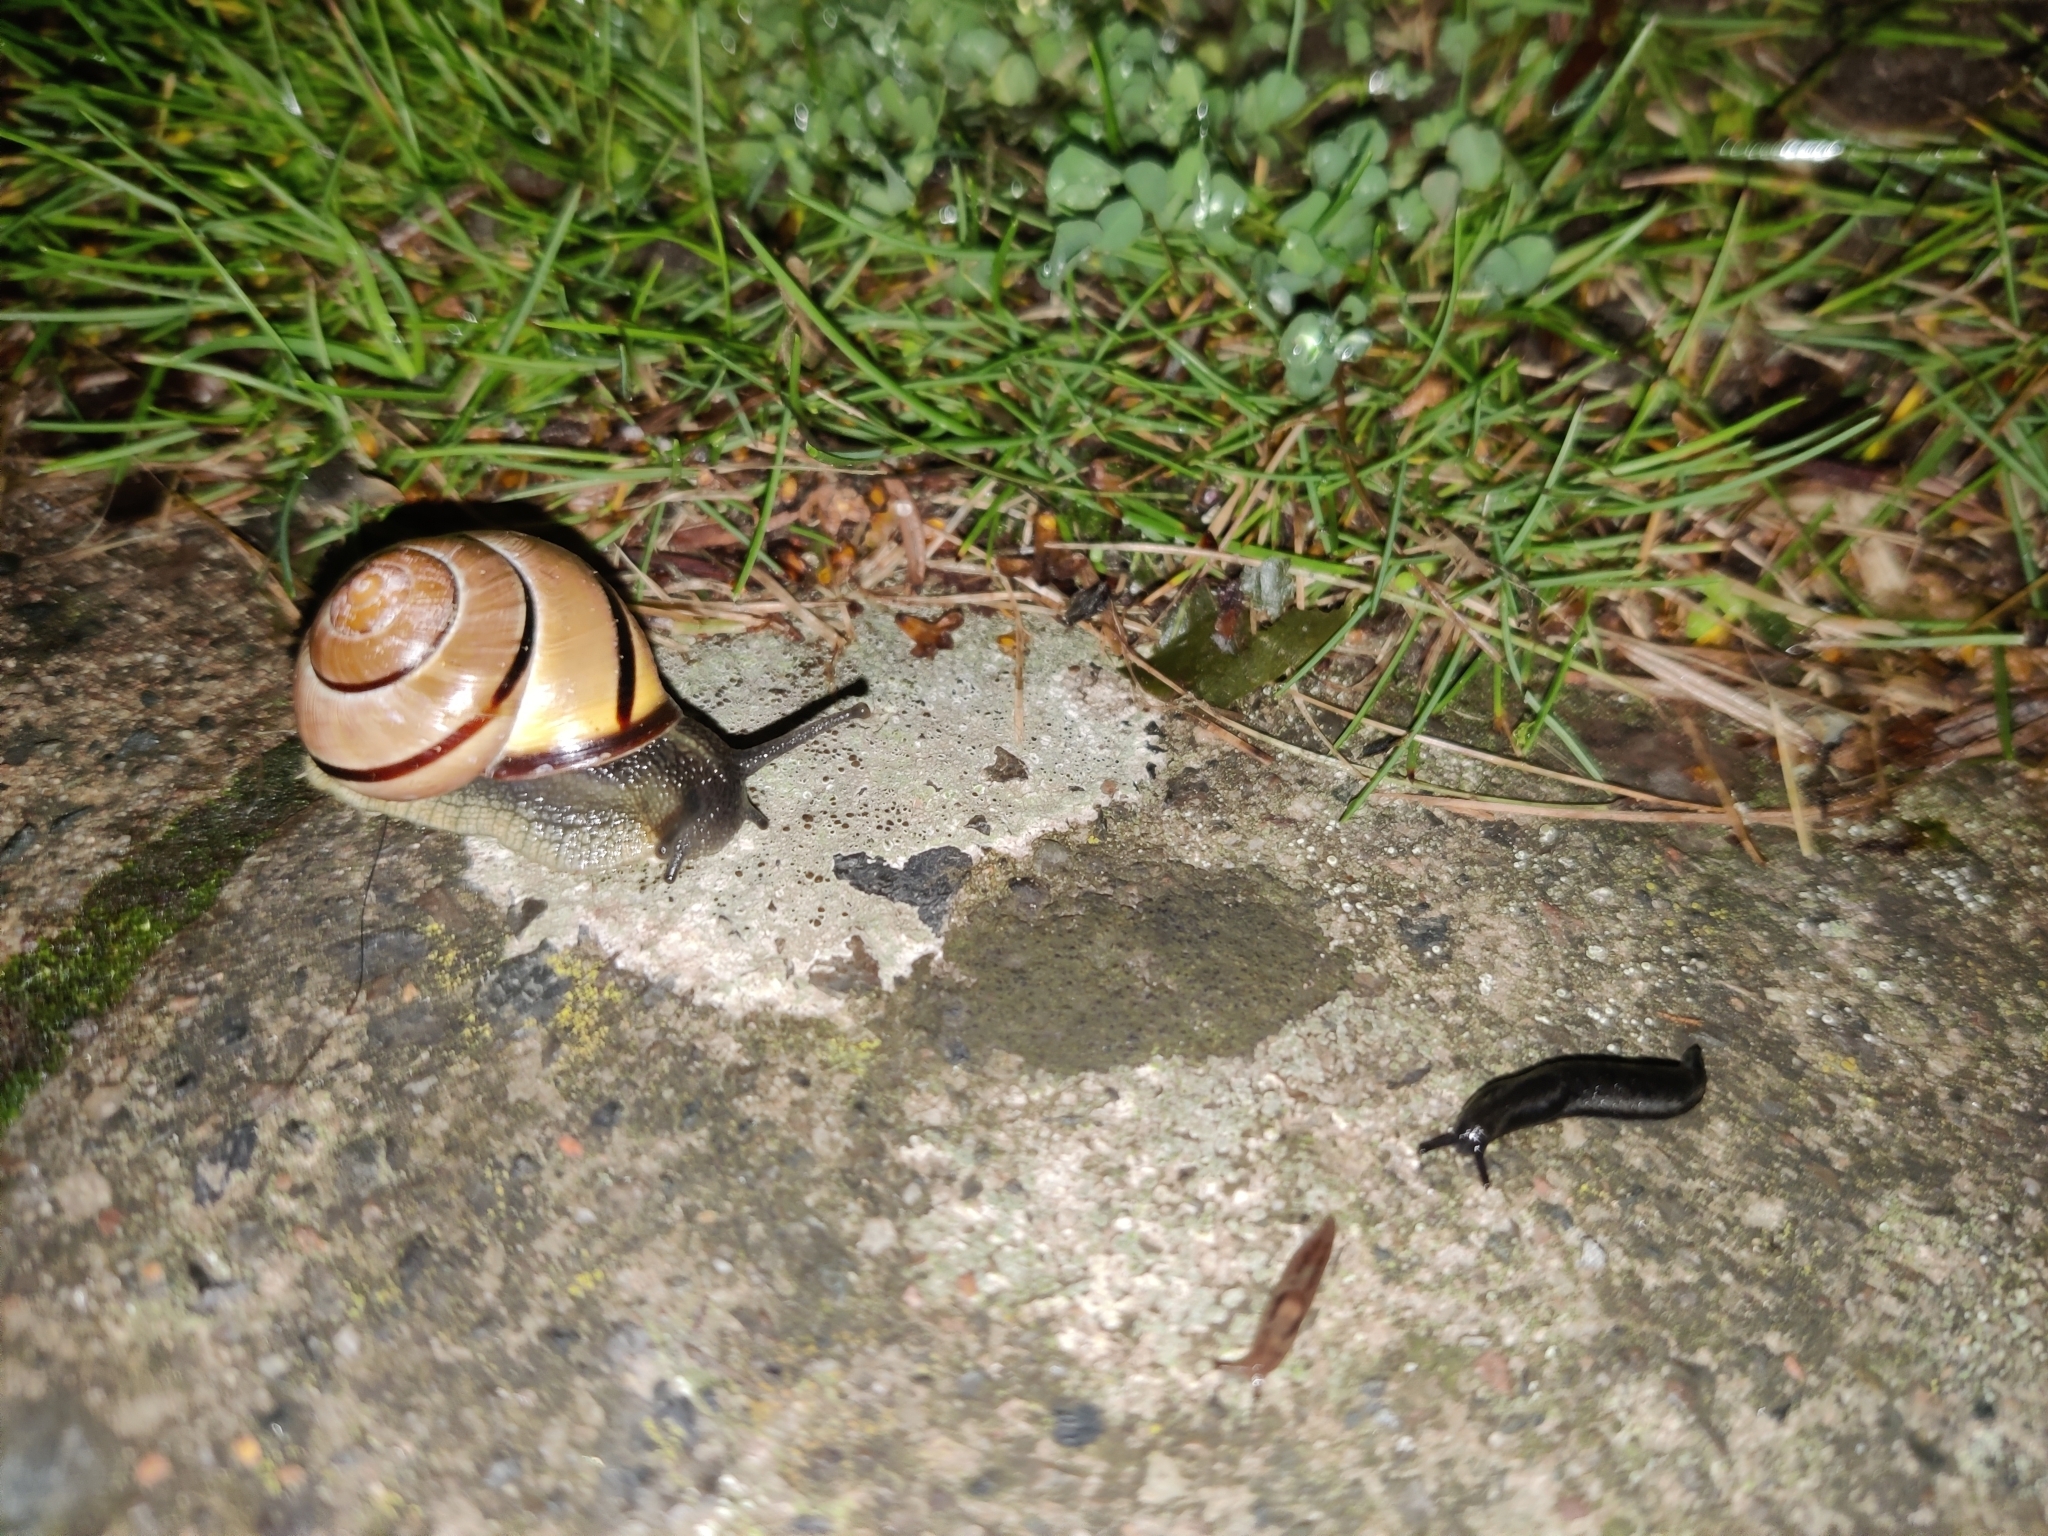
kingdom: Animalia
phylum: Mollusca
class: Gastropoda
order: Stylommatophora
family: Helicidae
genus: Cepaea
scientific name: Cepaea nemoralis
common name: Grovesnail
